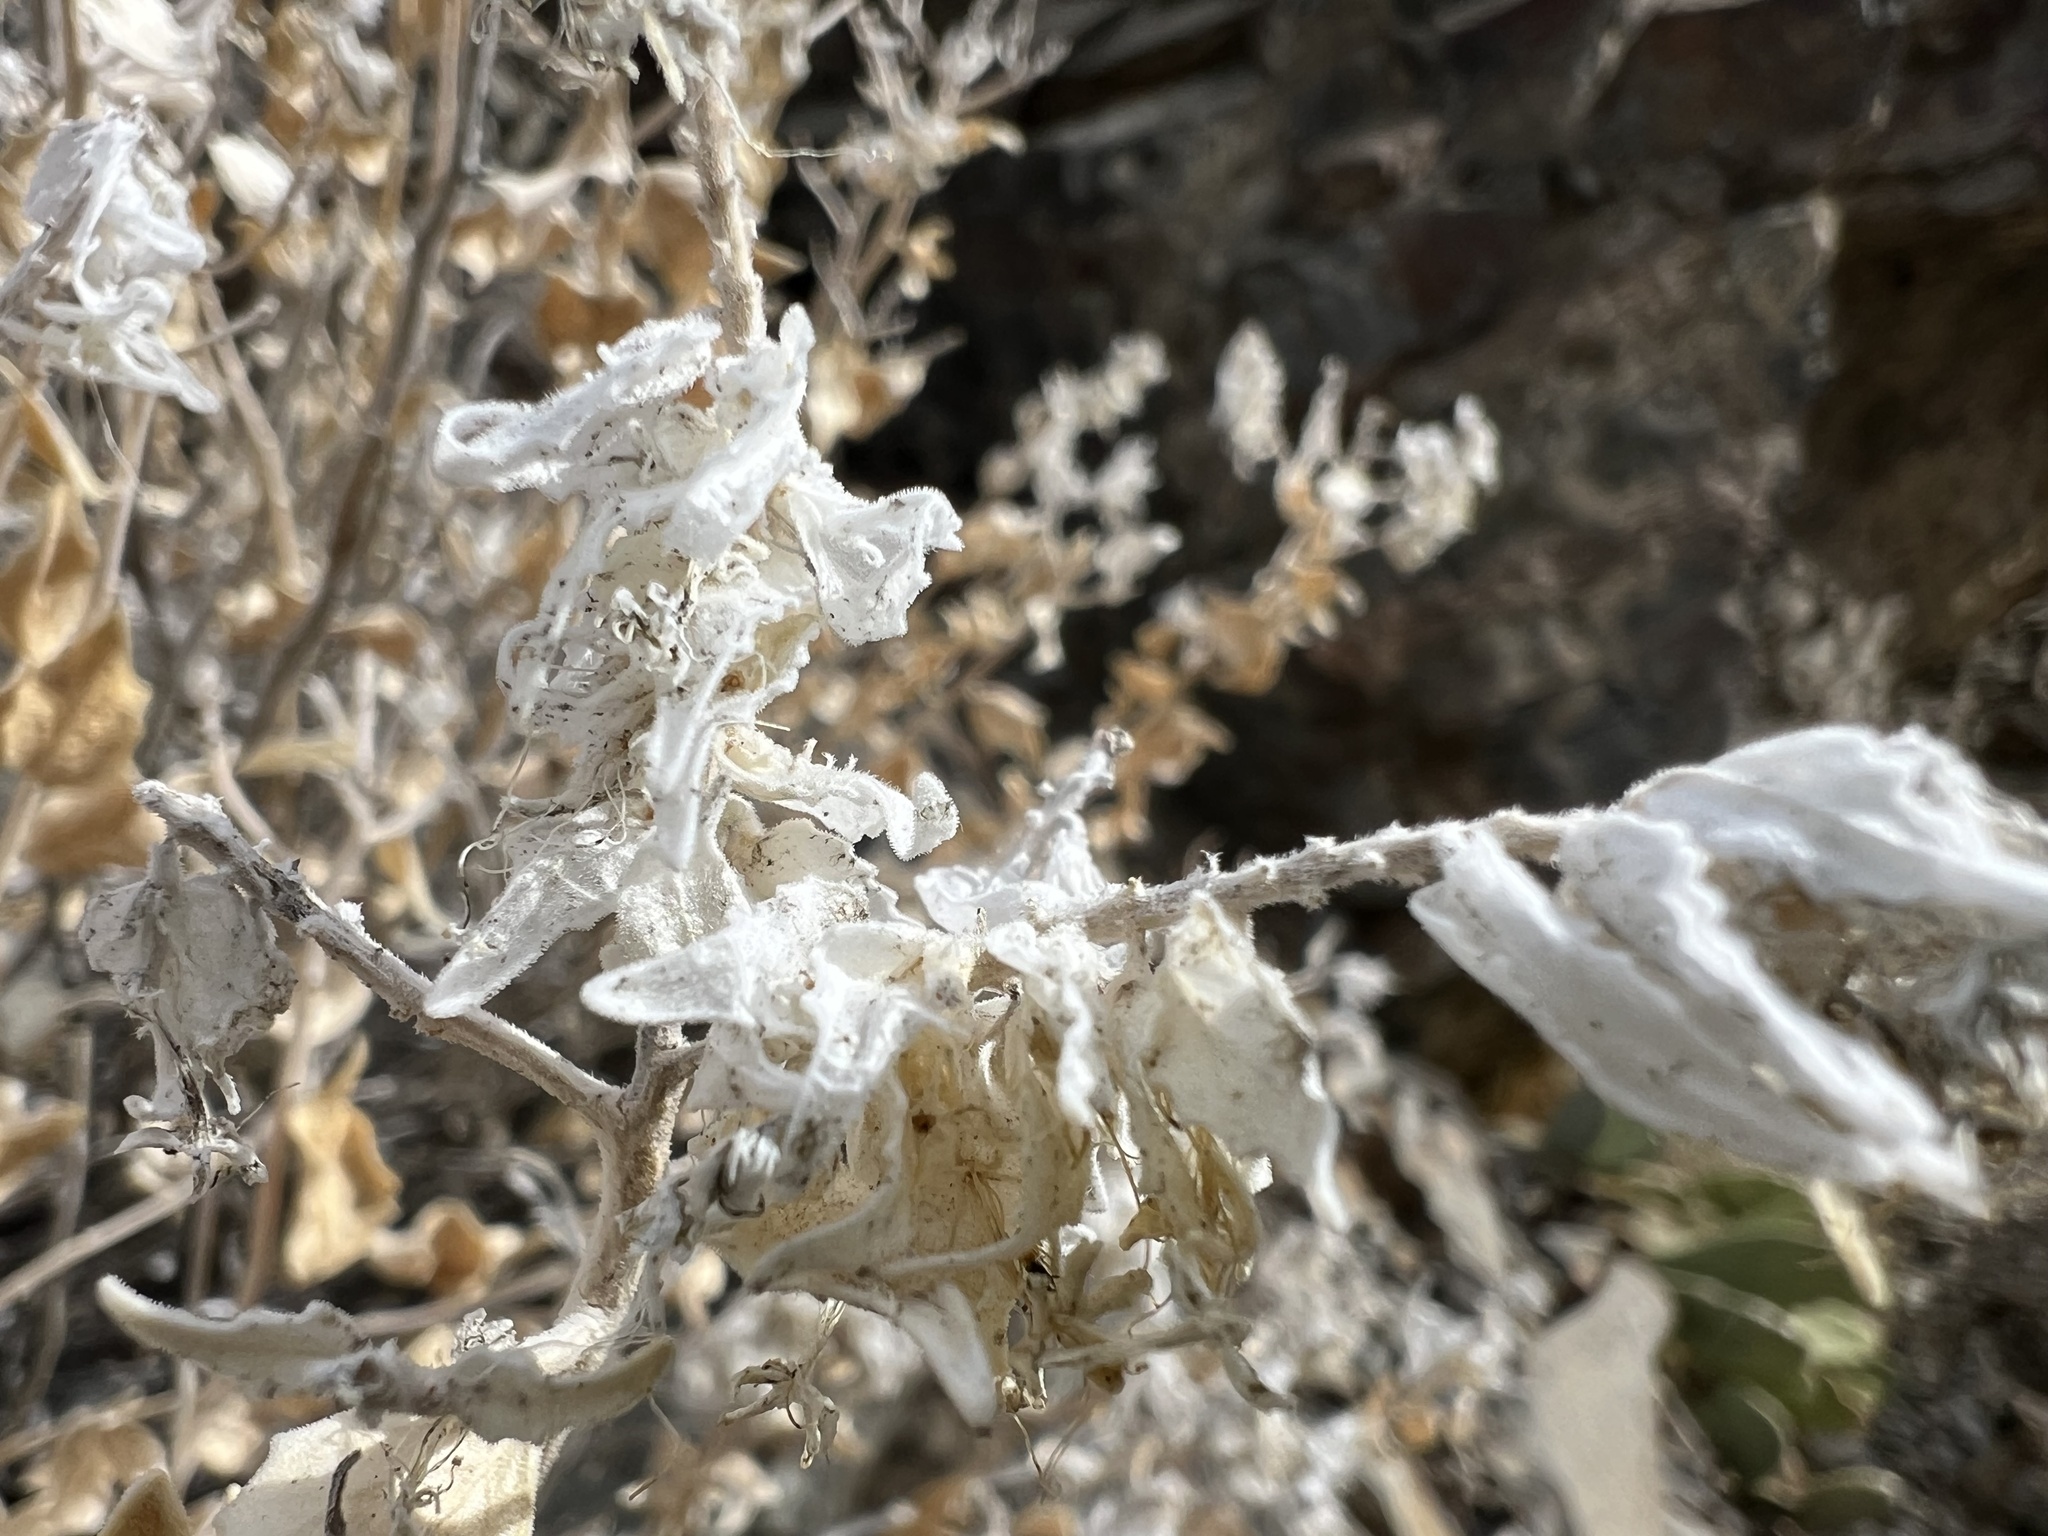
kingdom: Plantae
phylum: Tracheophyta
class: Magnoliopsida
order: Cornales
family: Loasaceae
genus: Petalonyx
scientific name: Petalonyx nitidus
